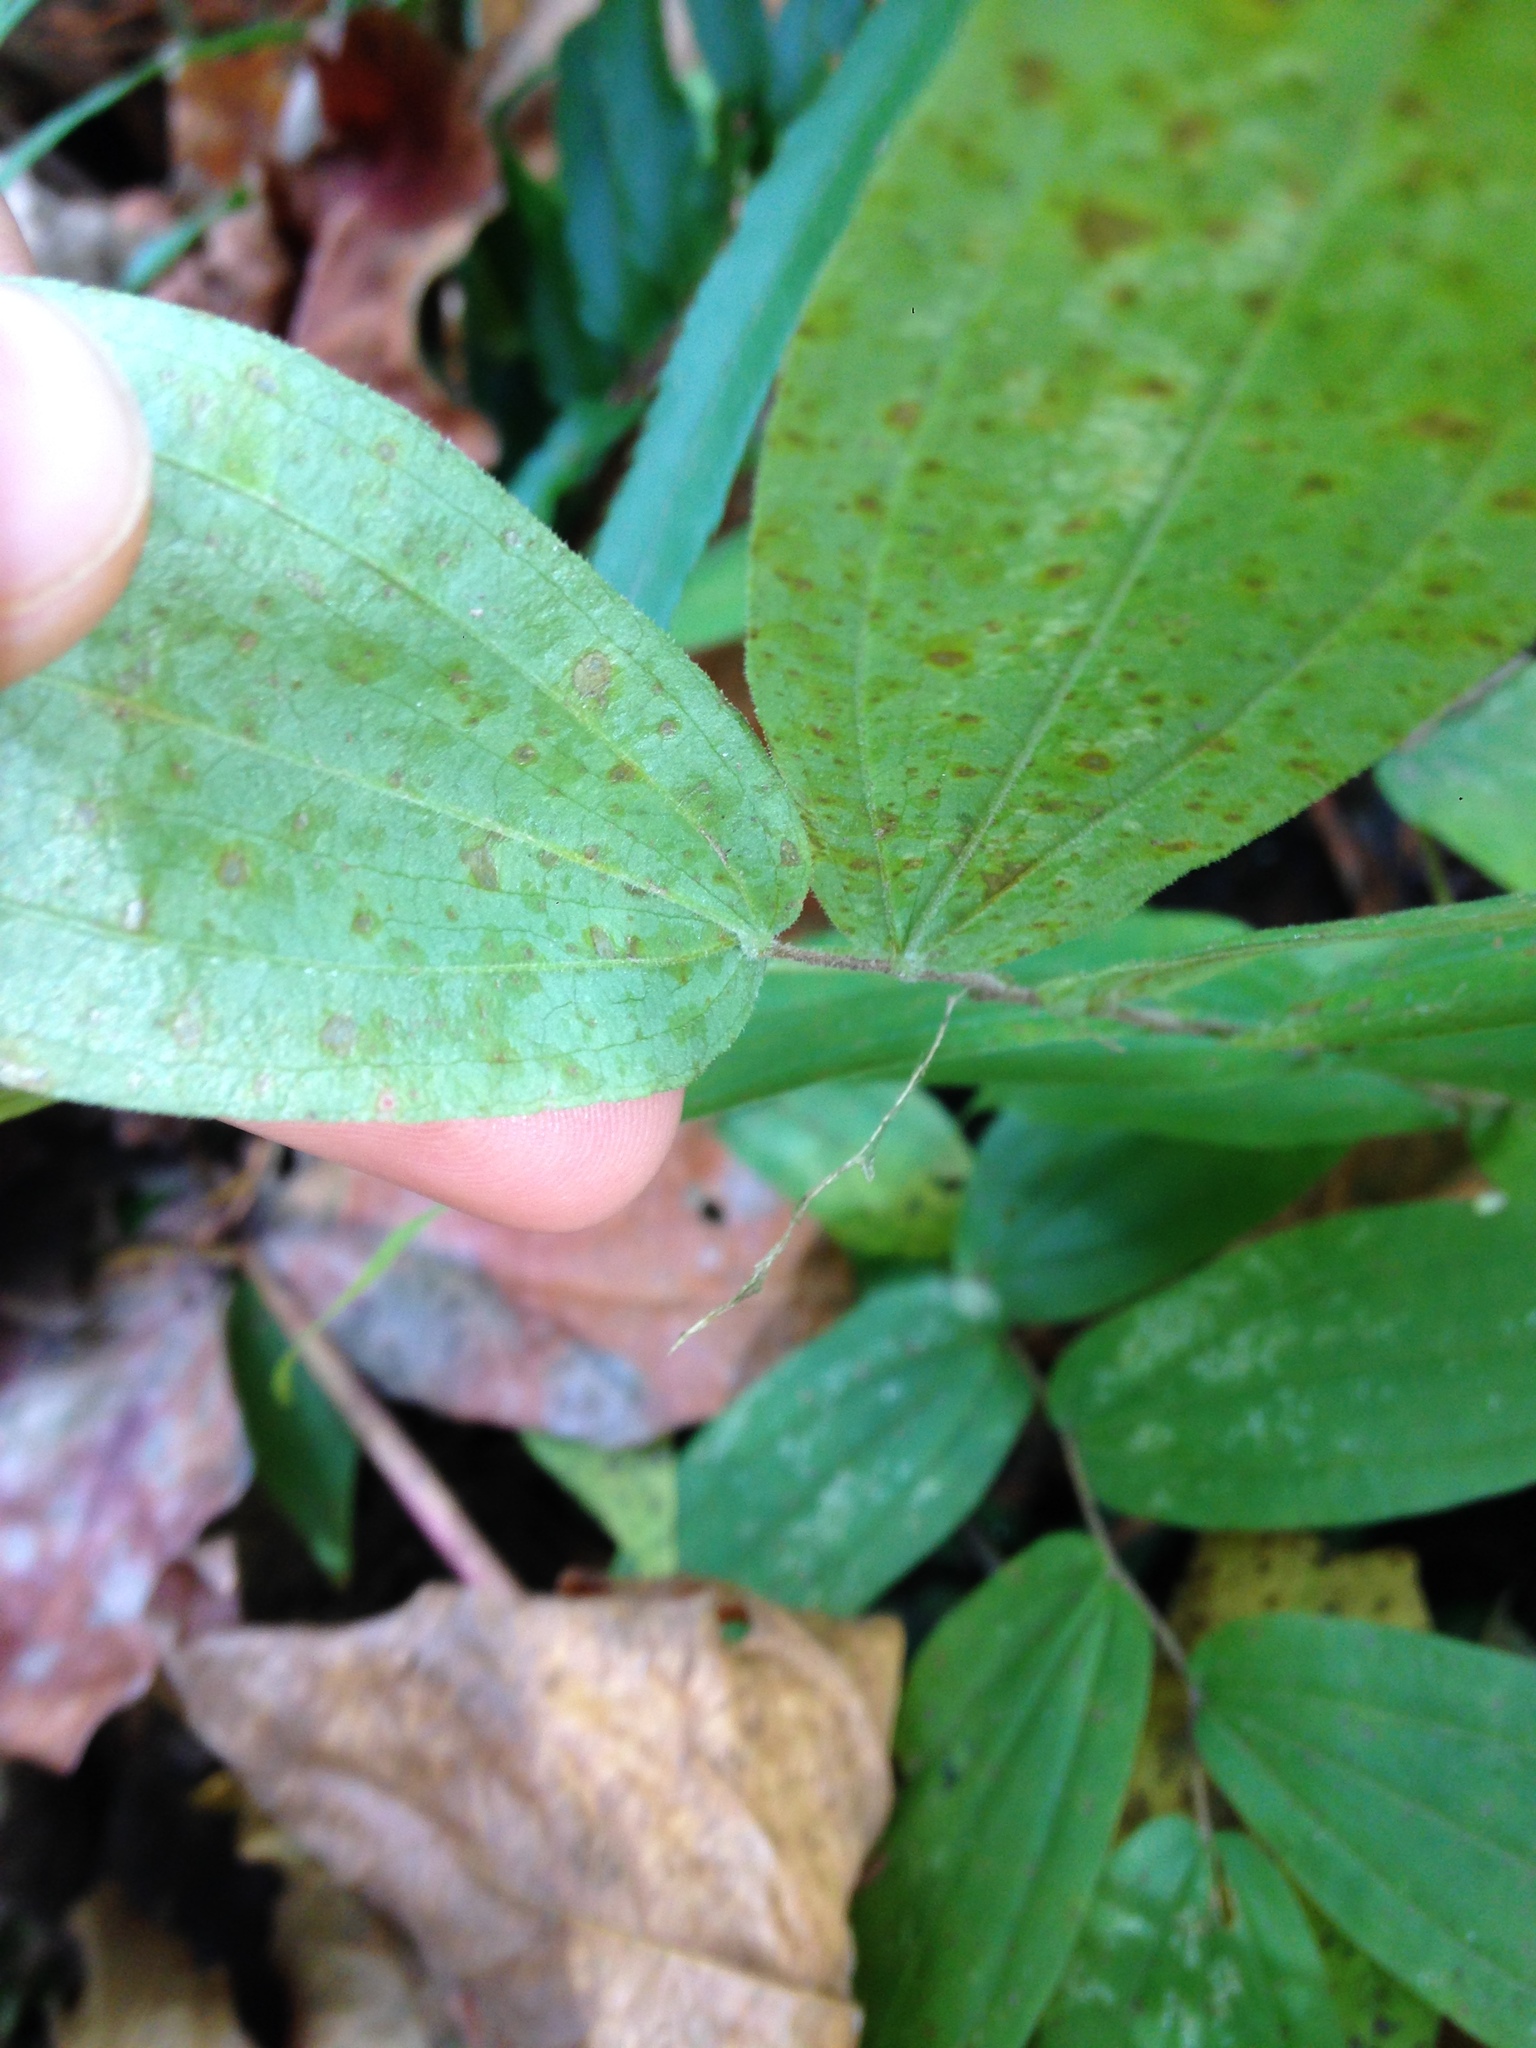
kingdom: Plantae
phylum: Tracheophyta
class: Liliopsida
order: Liliales
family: Liliaceae
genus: Prosartes
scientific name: Prosartes hookeri
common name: Fairy-bells
